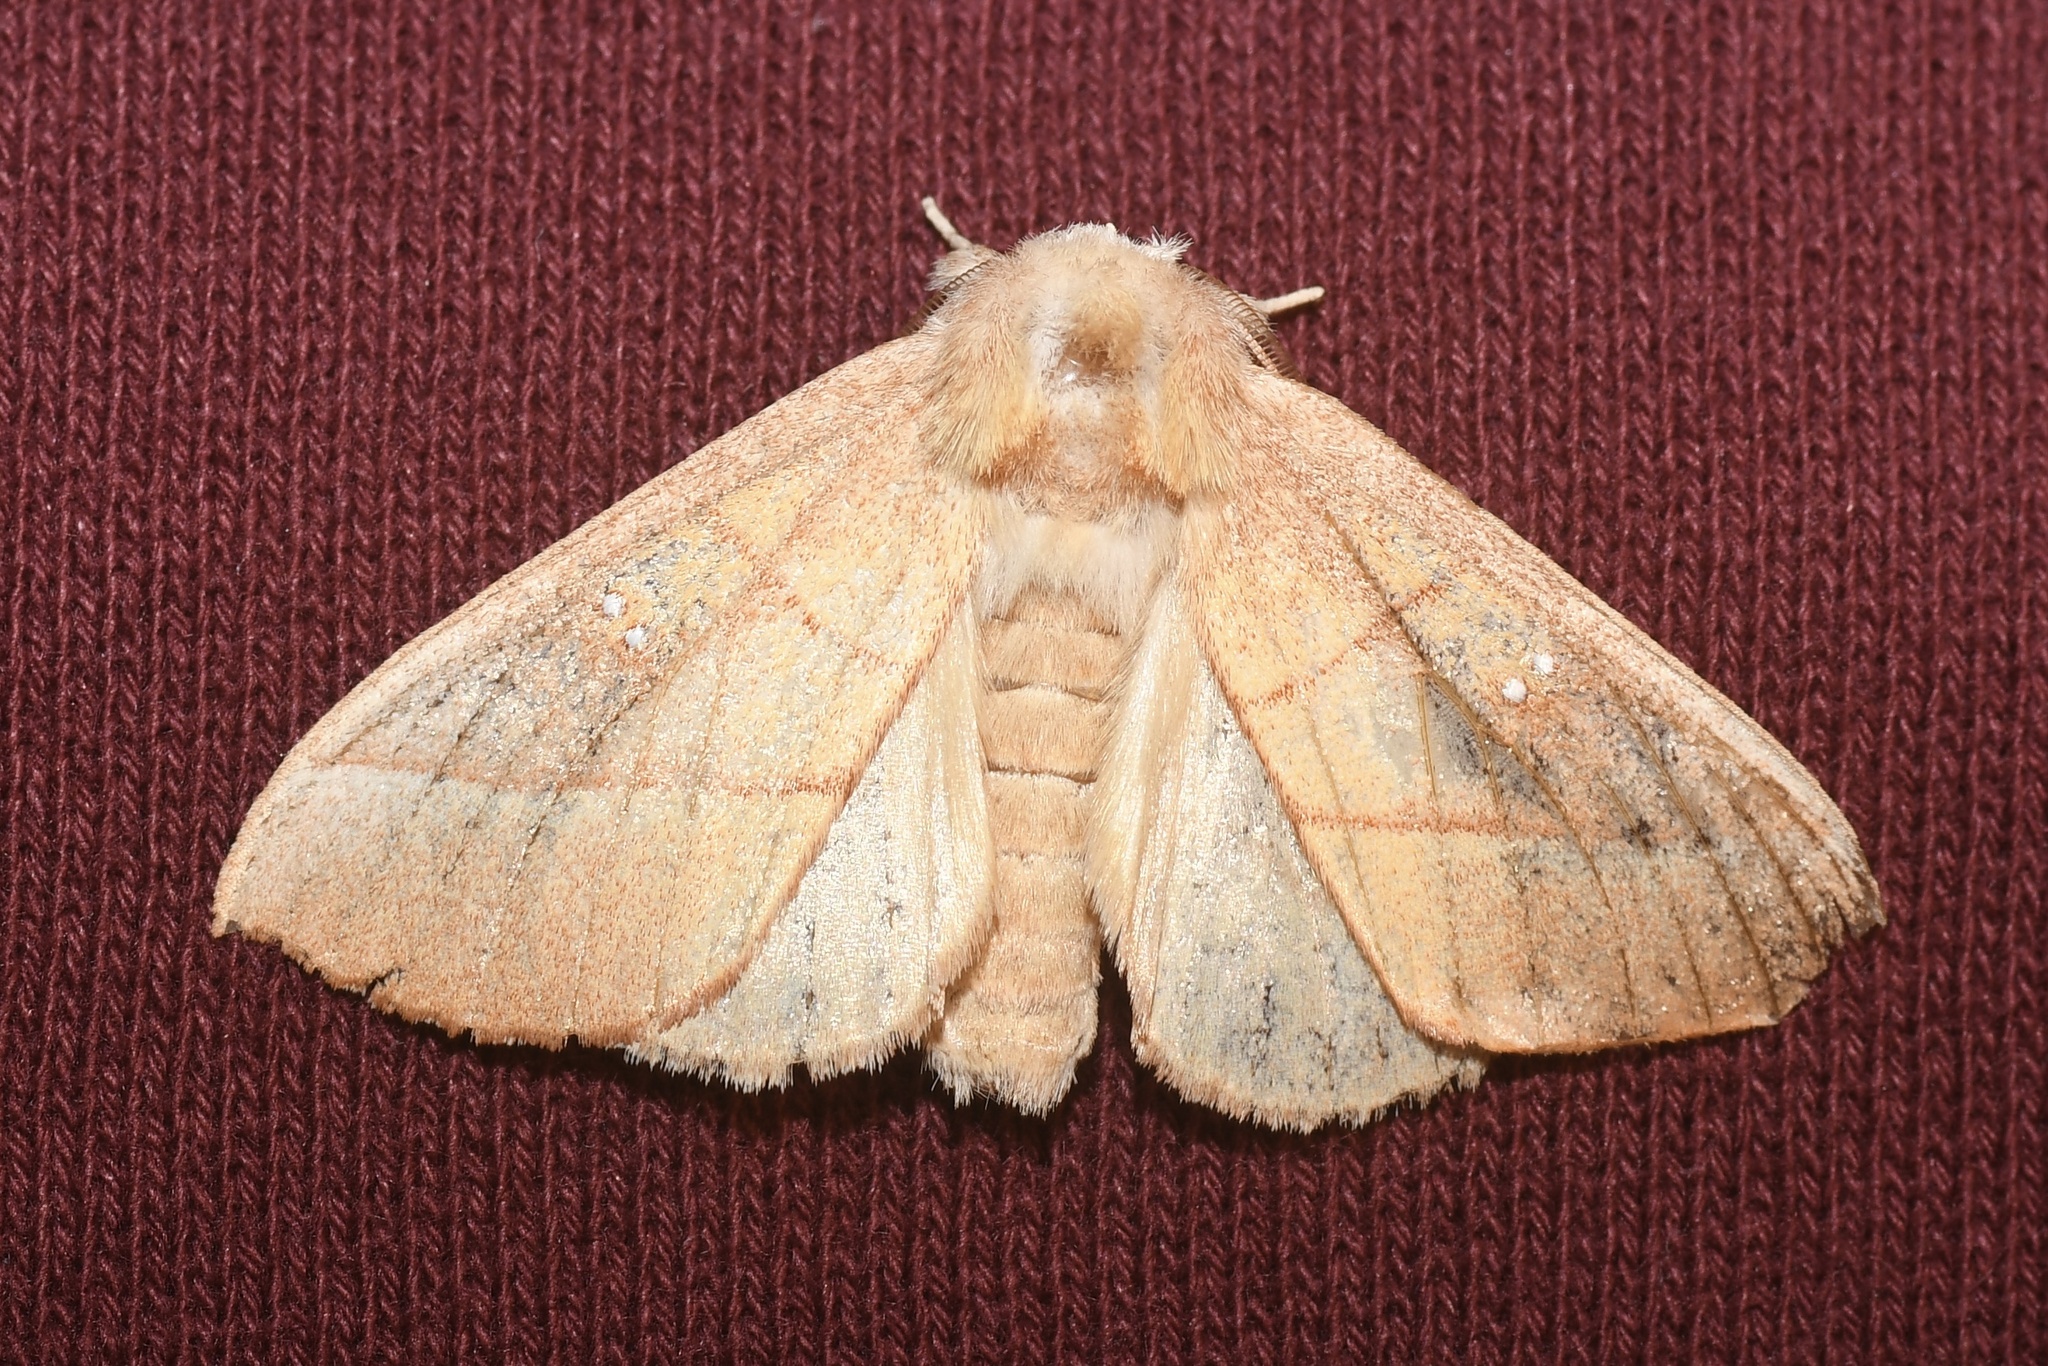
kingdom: Animalia
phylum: Arthropoda
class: Insecta
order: Lepidoptera
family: Notodontidae
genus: Nadata
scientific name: Nadata gibbosa
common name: White-dotted prominent
